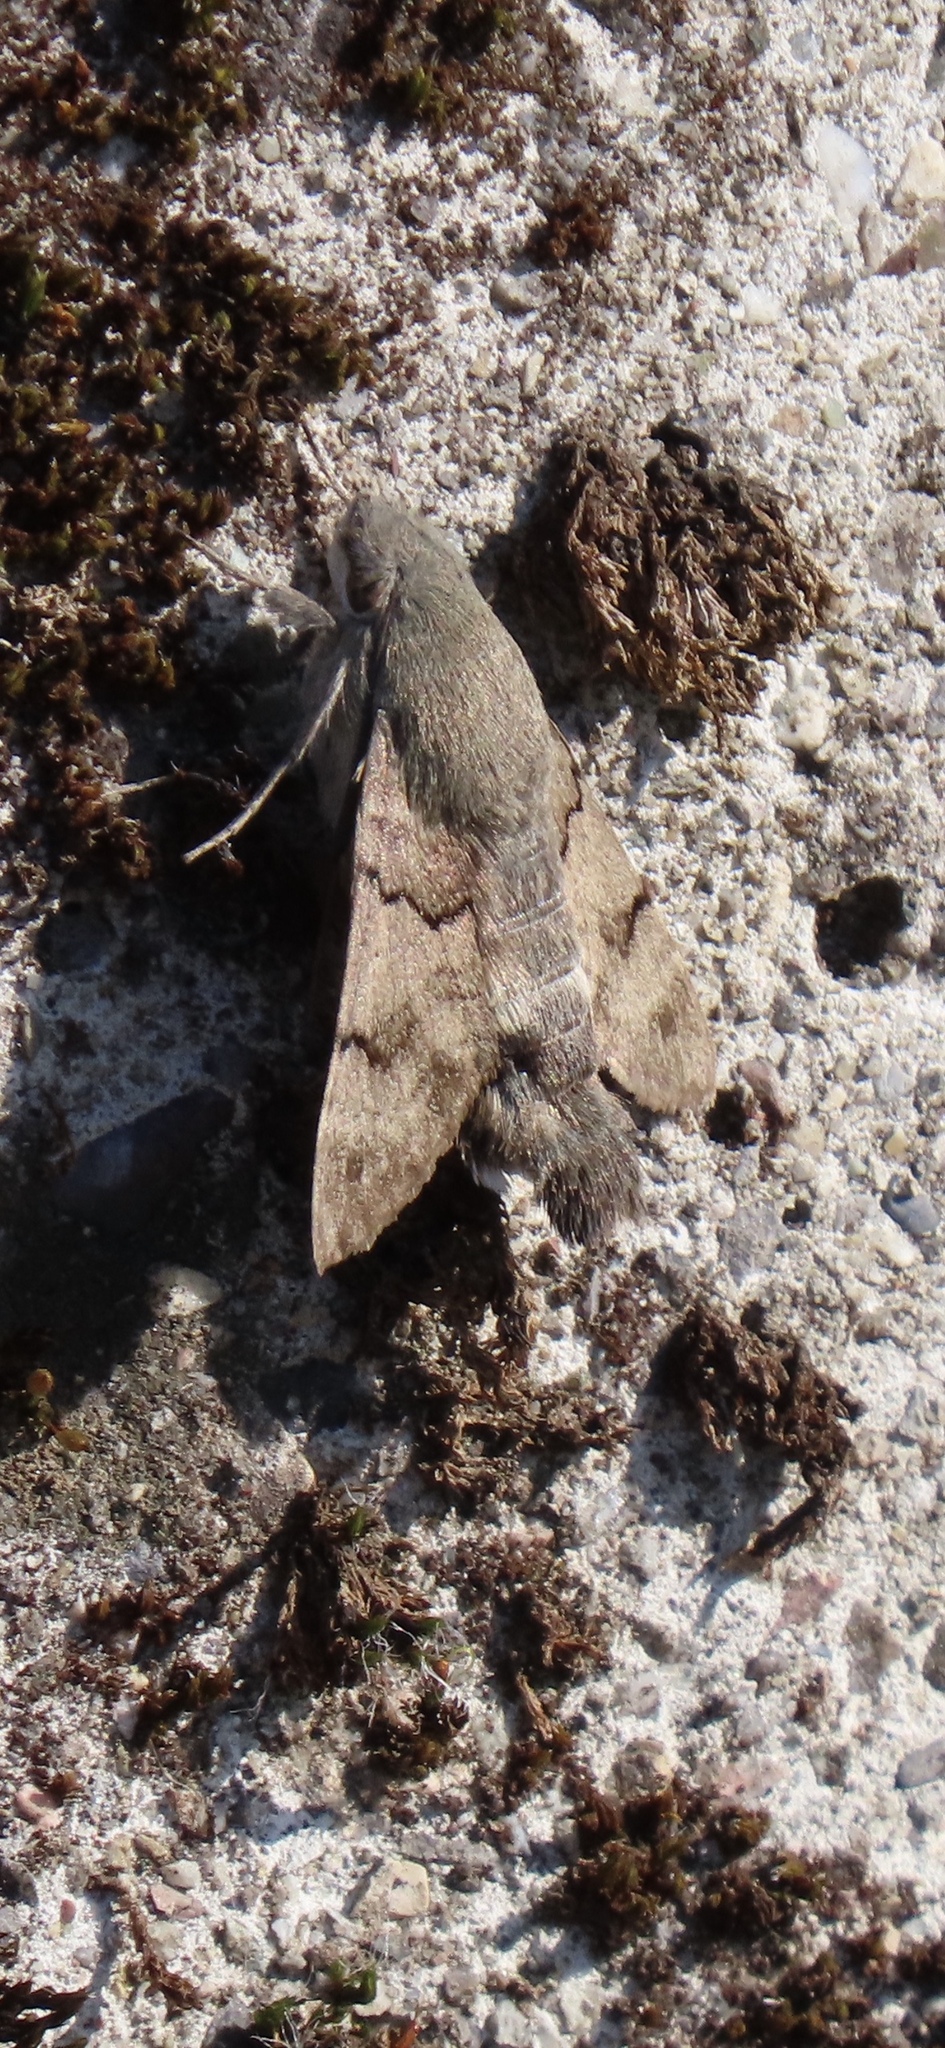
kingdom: Animalia
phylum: Arthropoda
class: Insecta
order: Lepidoptera
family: Sphingidae
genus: Macroglossum
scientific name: Macroglossum stellatarum
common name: Humming-bird hawk-moth
